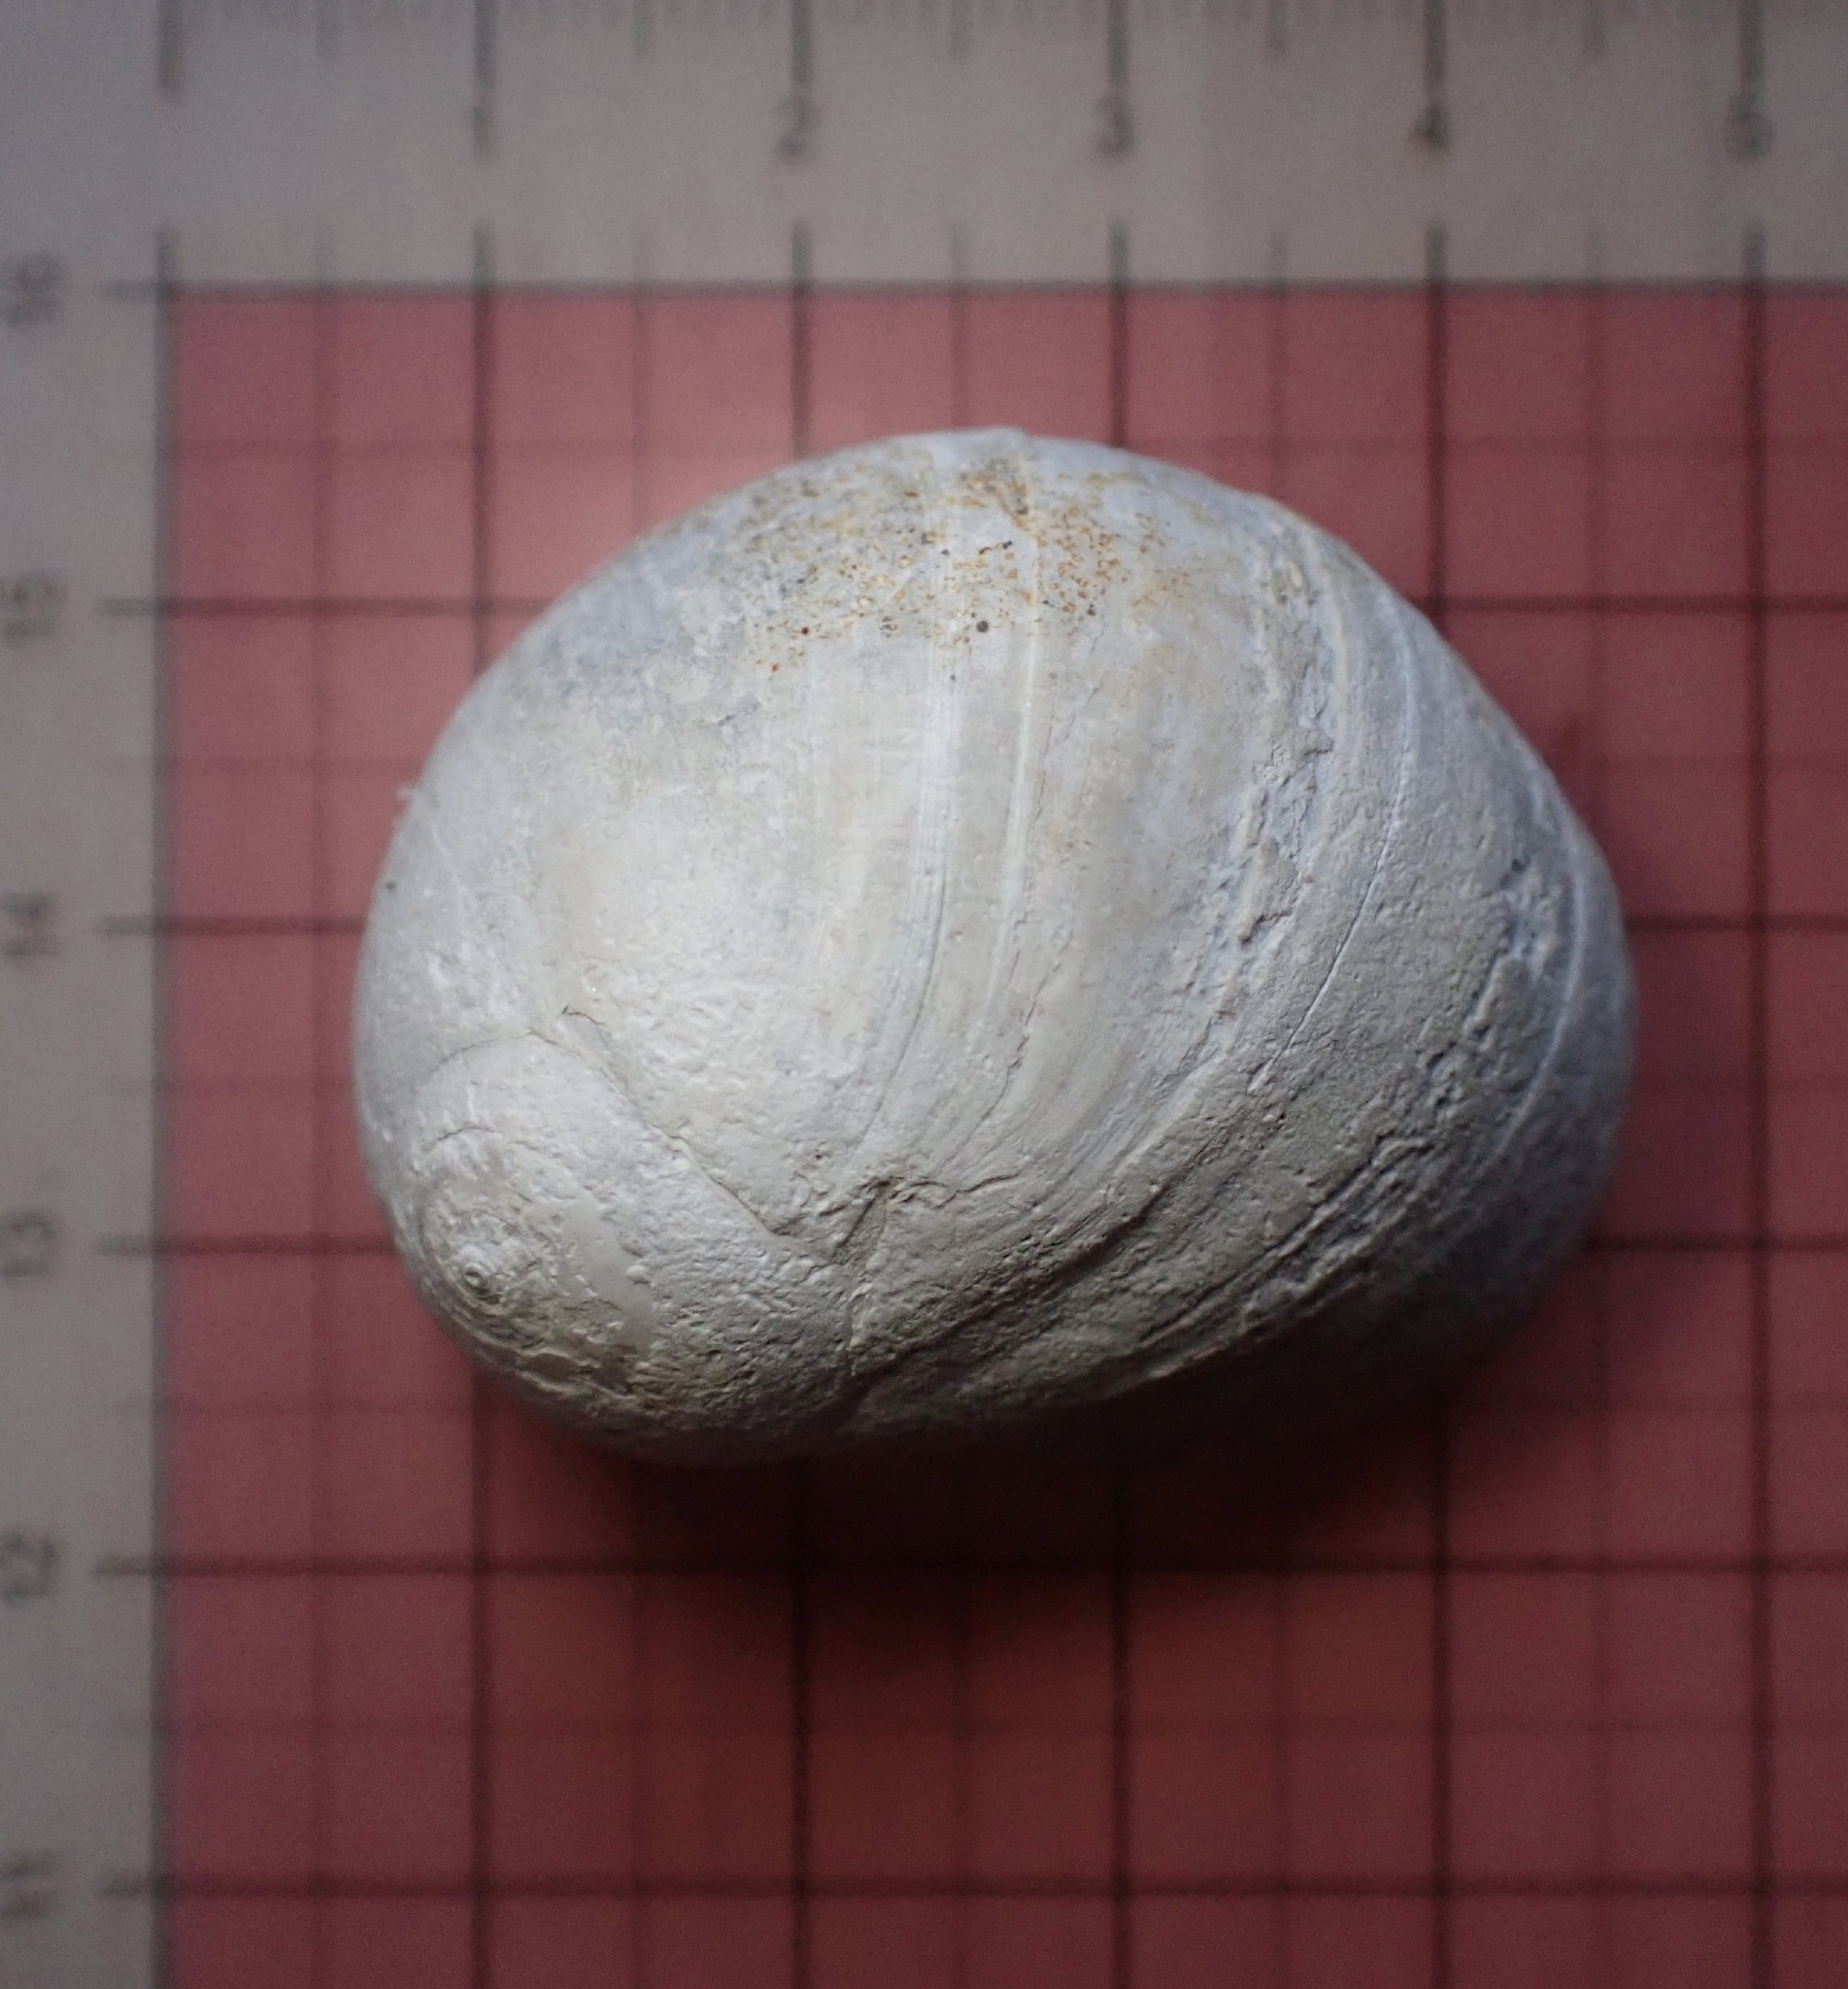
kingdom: Animalia
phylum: Mollusca
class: Gastropoda
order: Littorinimorpha
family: Naticidae
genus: Glossaulax
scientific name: Glossaulax reclusiana
